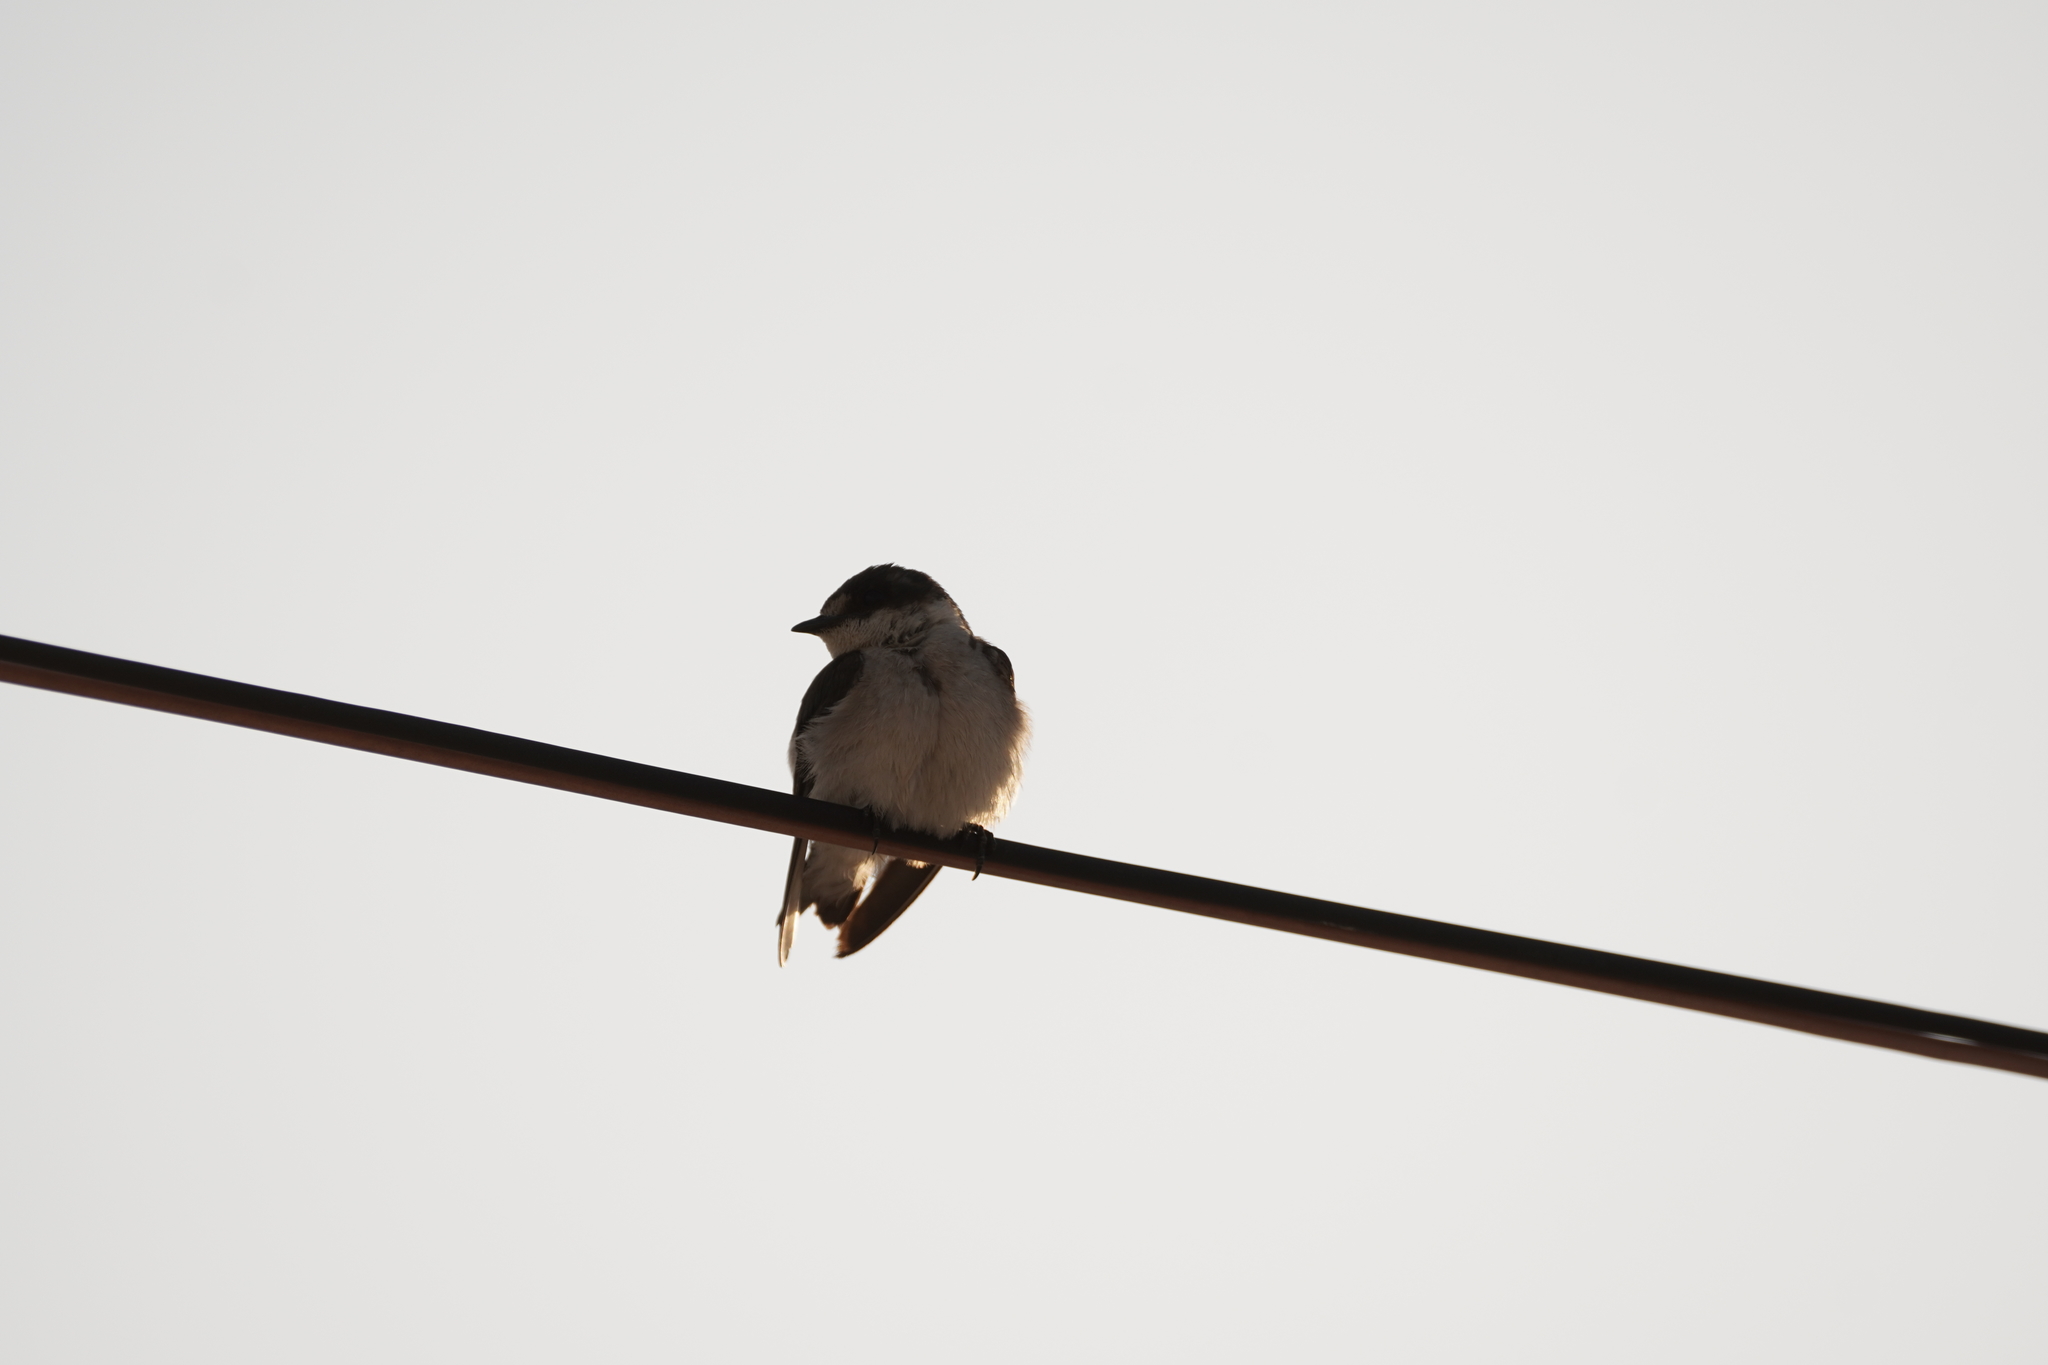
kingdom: Animalia
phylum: Chordata
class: Aves
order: Passeriformes
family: Hirundinidae
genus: Tachycineta
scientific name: Tachycineta albilinea
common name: Mangrove swallow
